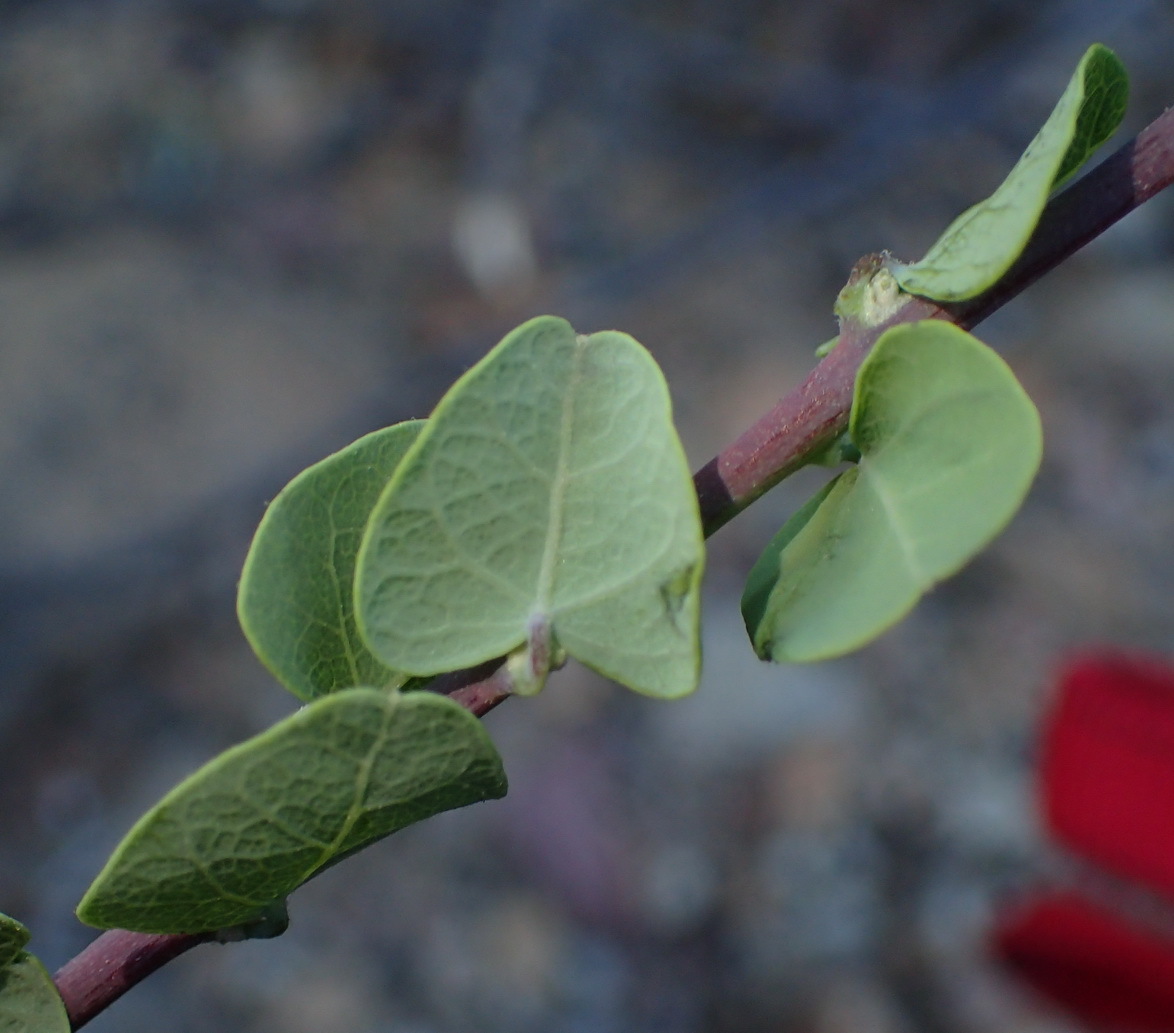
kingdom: Plantae
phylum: Tracheophyta
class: Magnoliopsida
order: Ranunculales
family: Menispermaceae
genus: Cissampelos
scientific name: Cissampelos capensis
